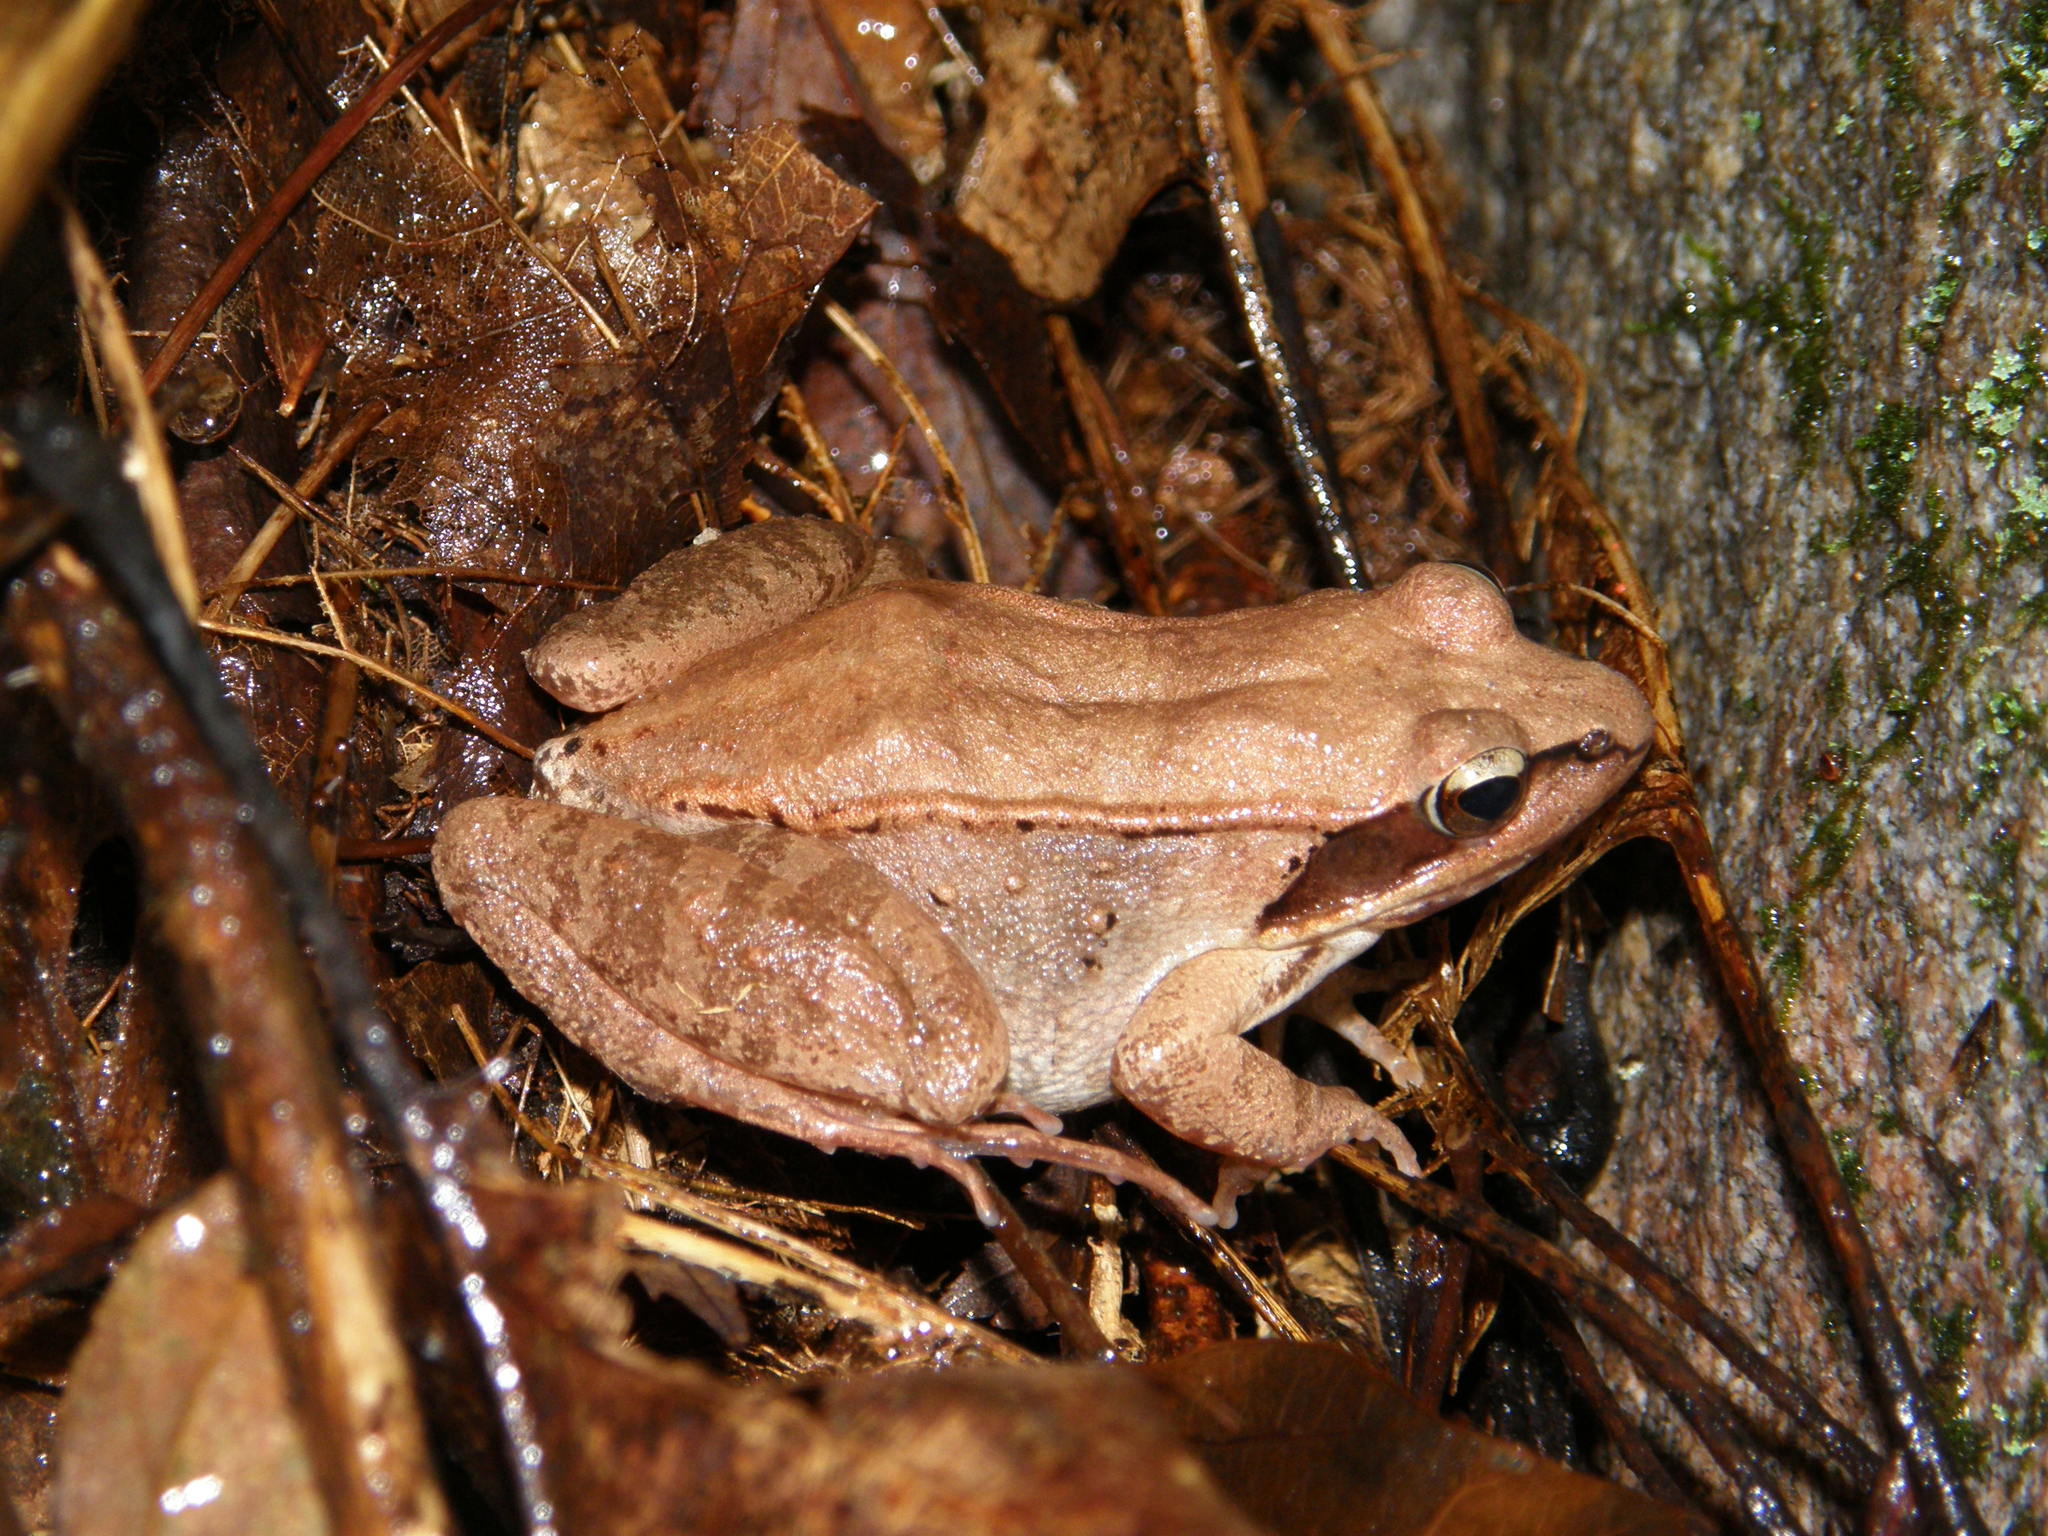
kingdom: Animalia
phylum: Chordata
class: Amphibia
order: Anura
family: Ranidae
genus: Lithobates
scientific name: Lithobates sylvaticus
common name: Wood frog
